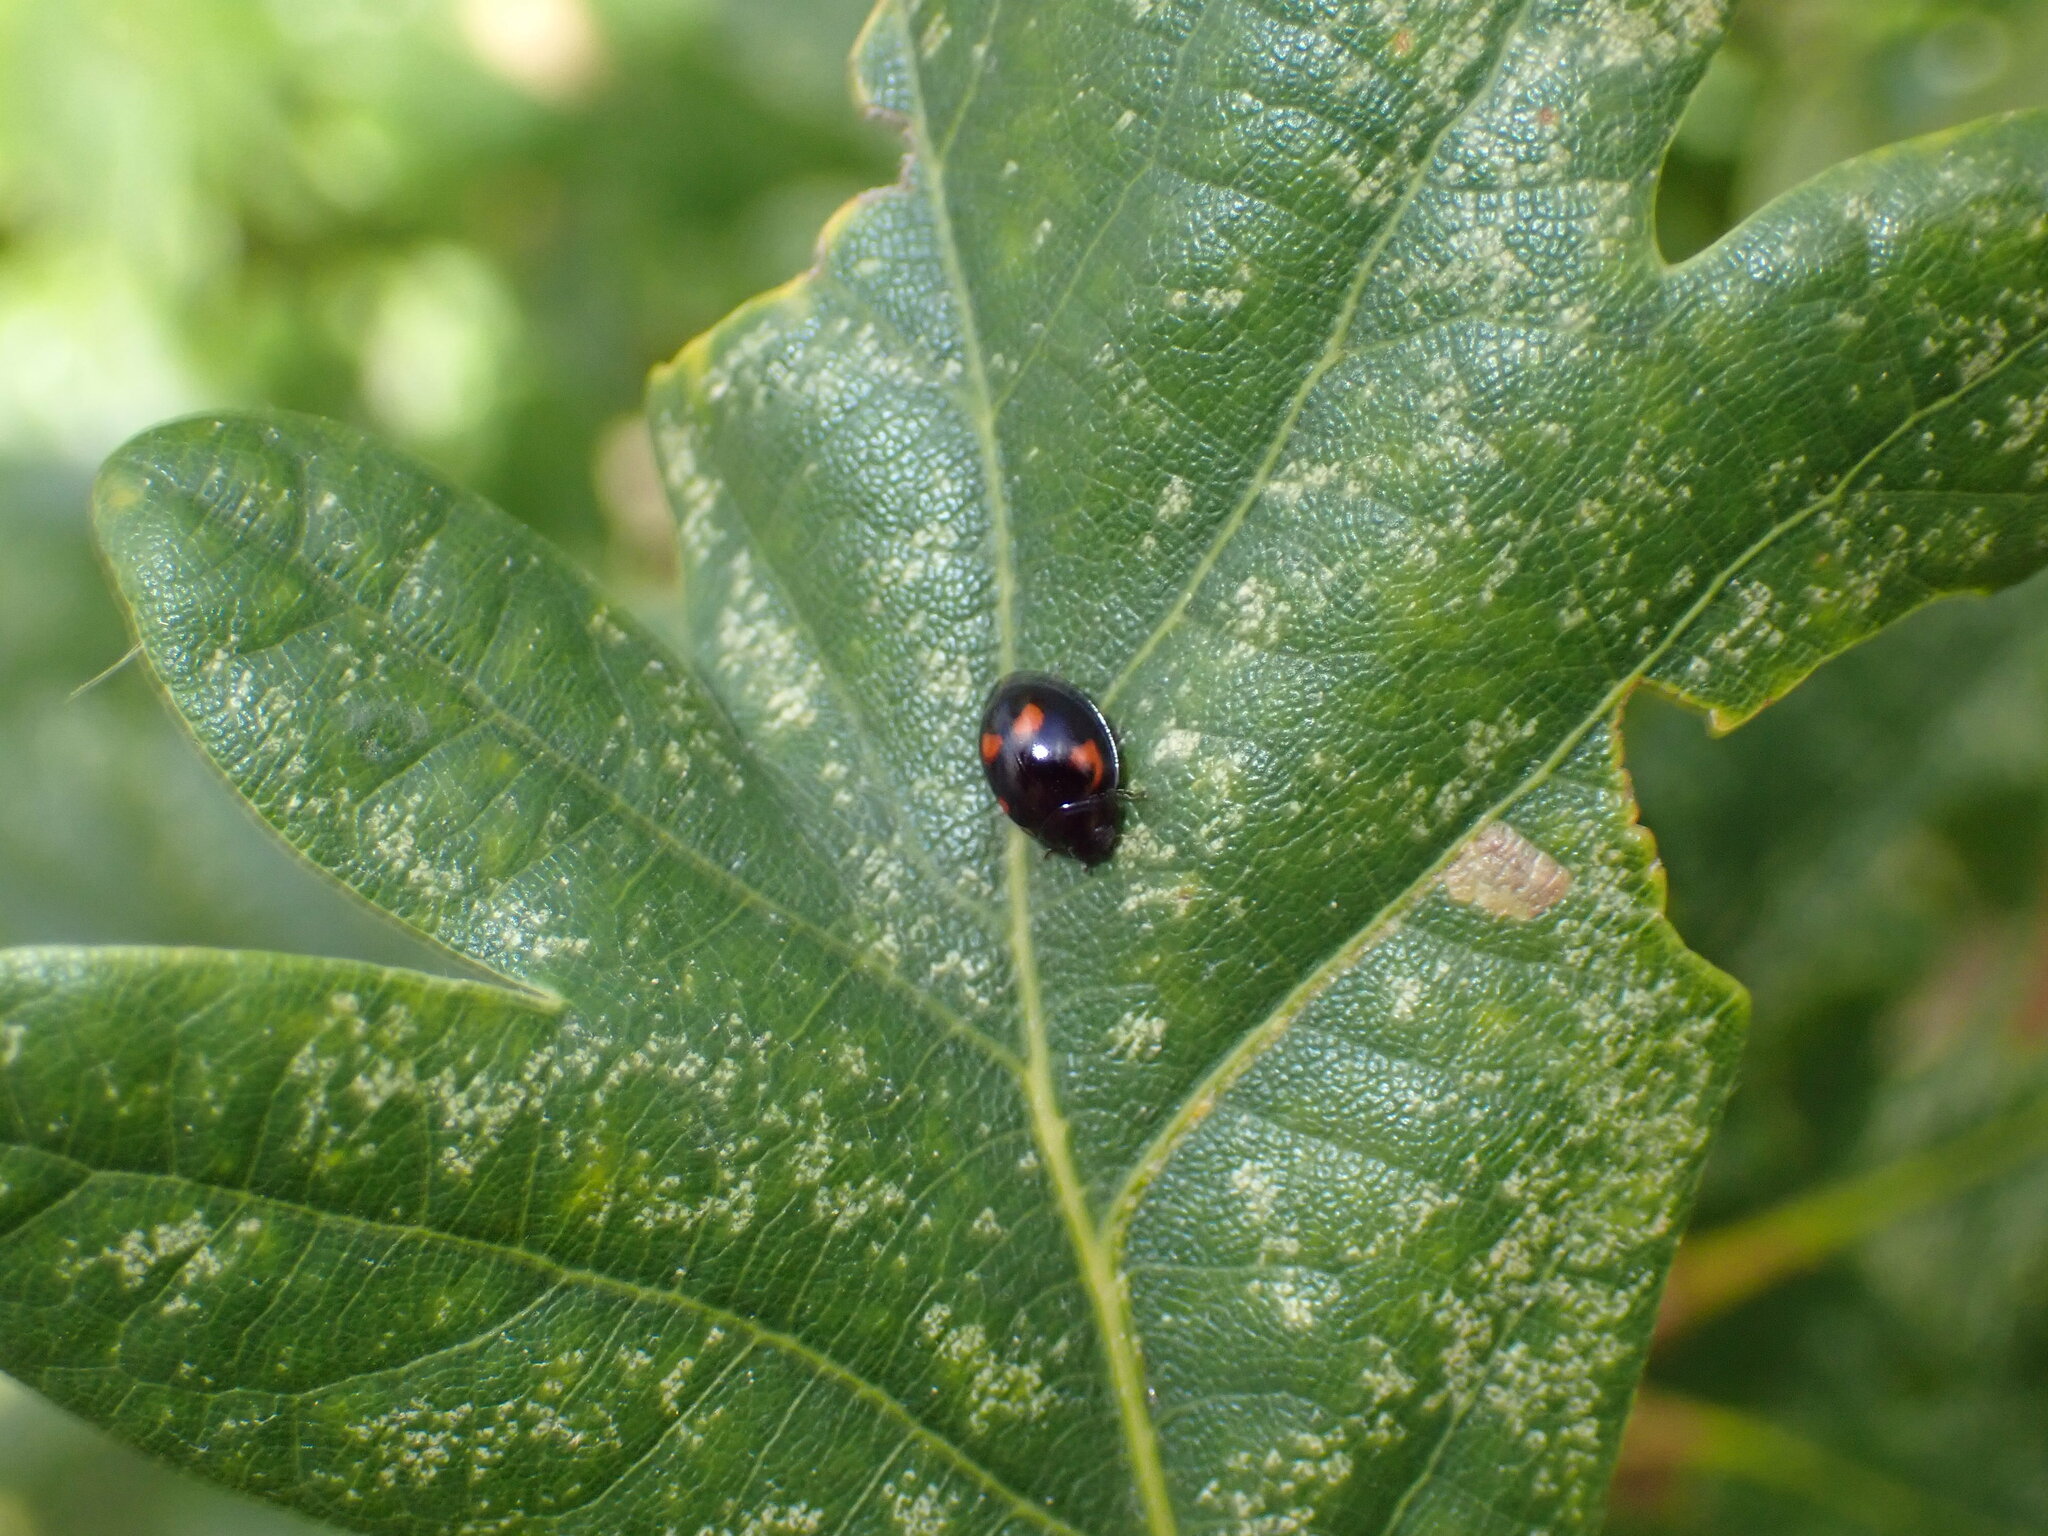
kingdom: Animalia
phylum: Arthropoda
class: Insecta
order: Coleoptera
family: Coccinellidae
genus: Brumus
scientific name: Brumus quadripustulatus
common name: Ladybird beetle
